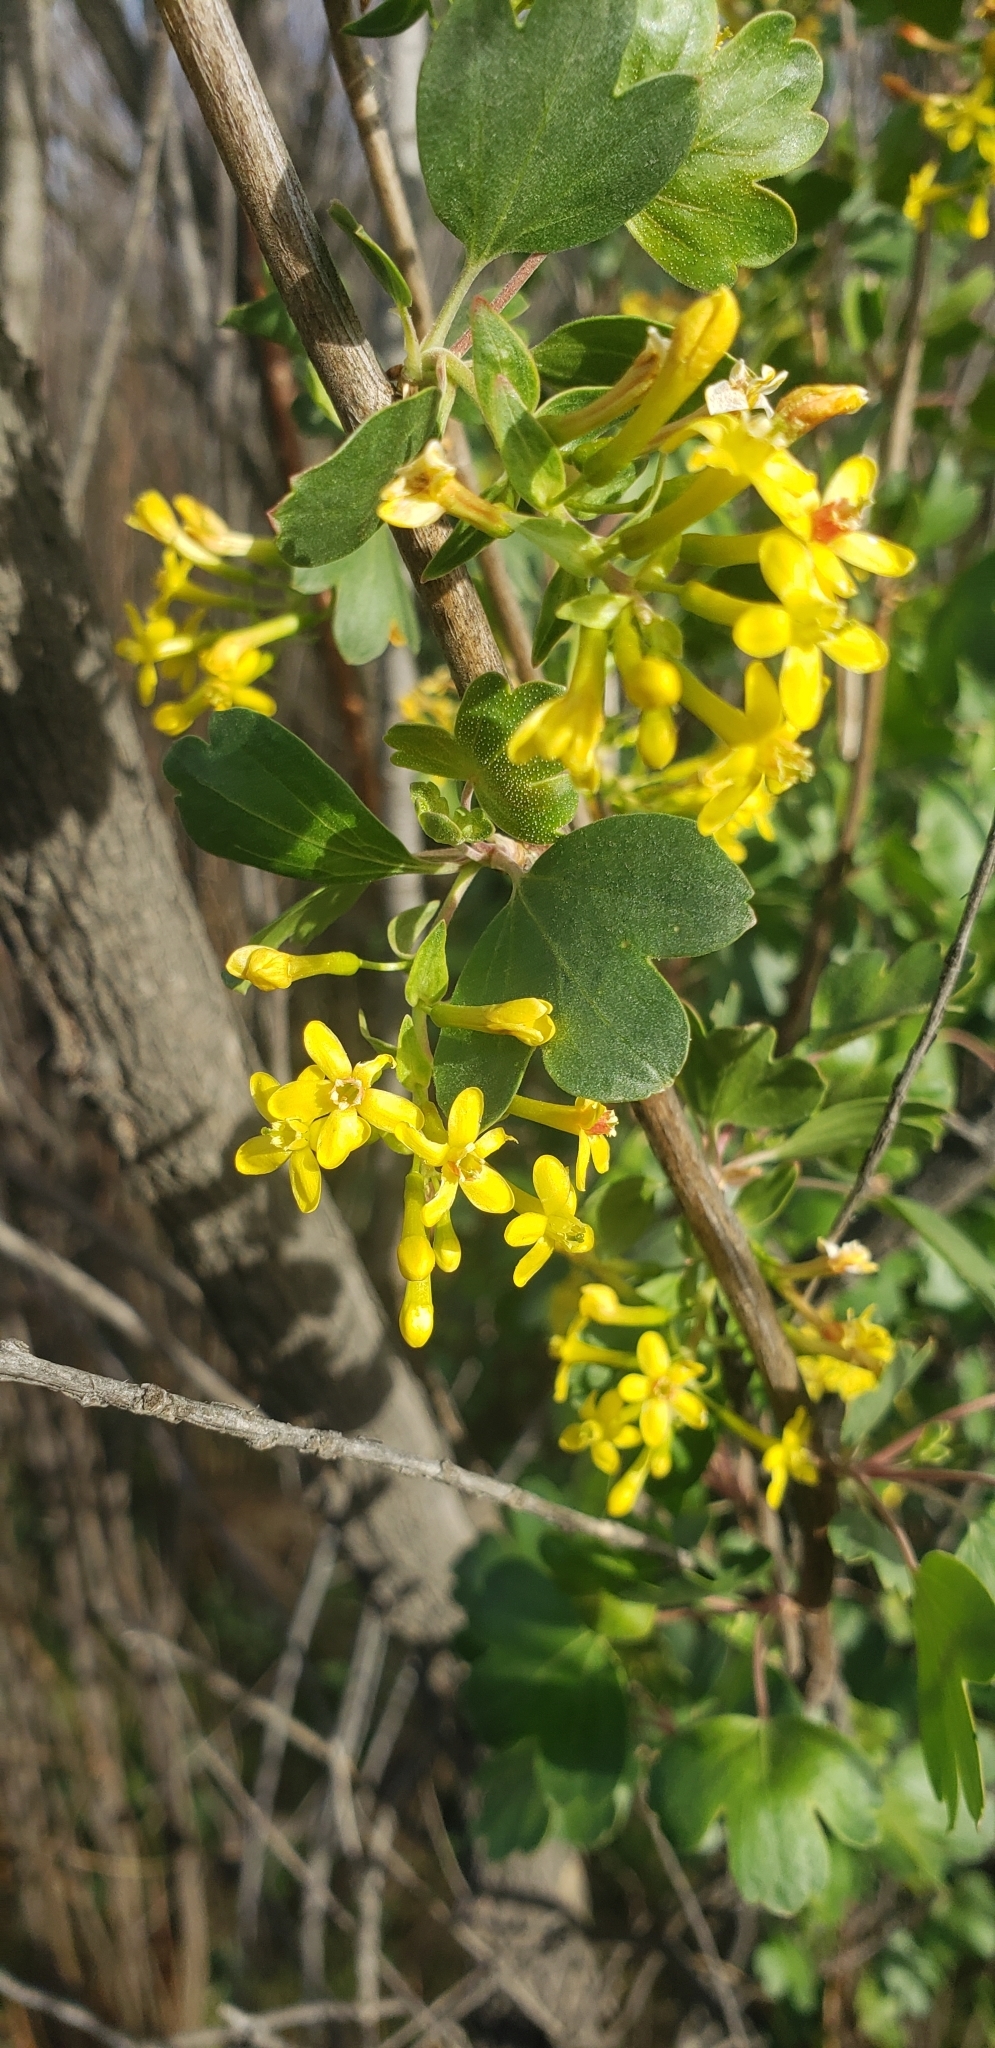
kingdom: Plantae
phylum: Tracheophyta
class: Magnoliopsida
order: Saxifragales
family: Grossulariaceae
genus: Ribes
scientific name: Ribes aureum
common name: Golden currant
